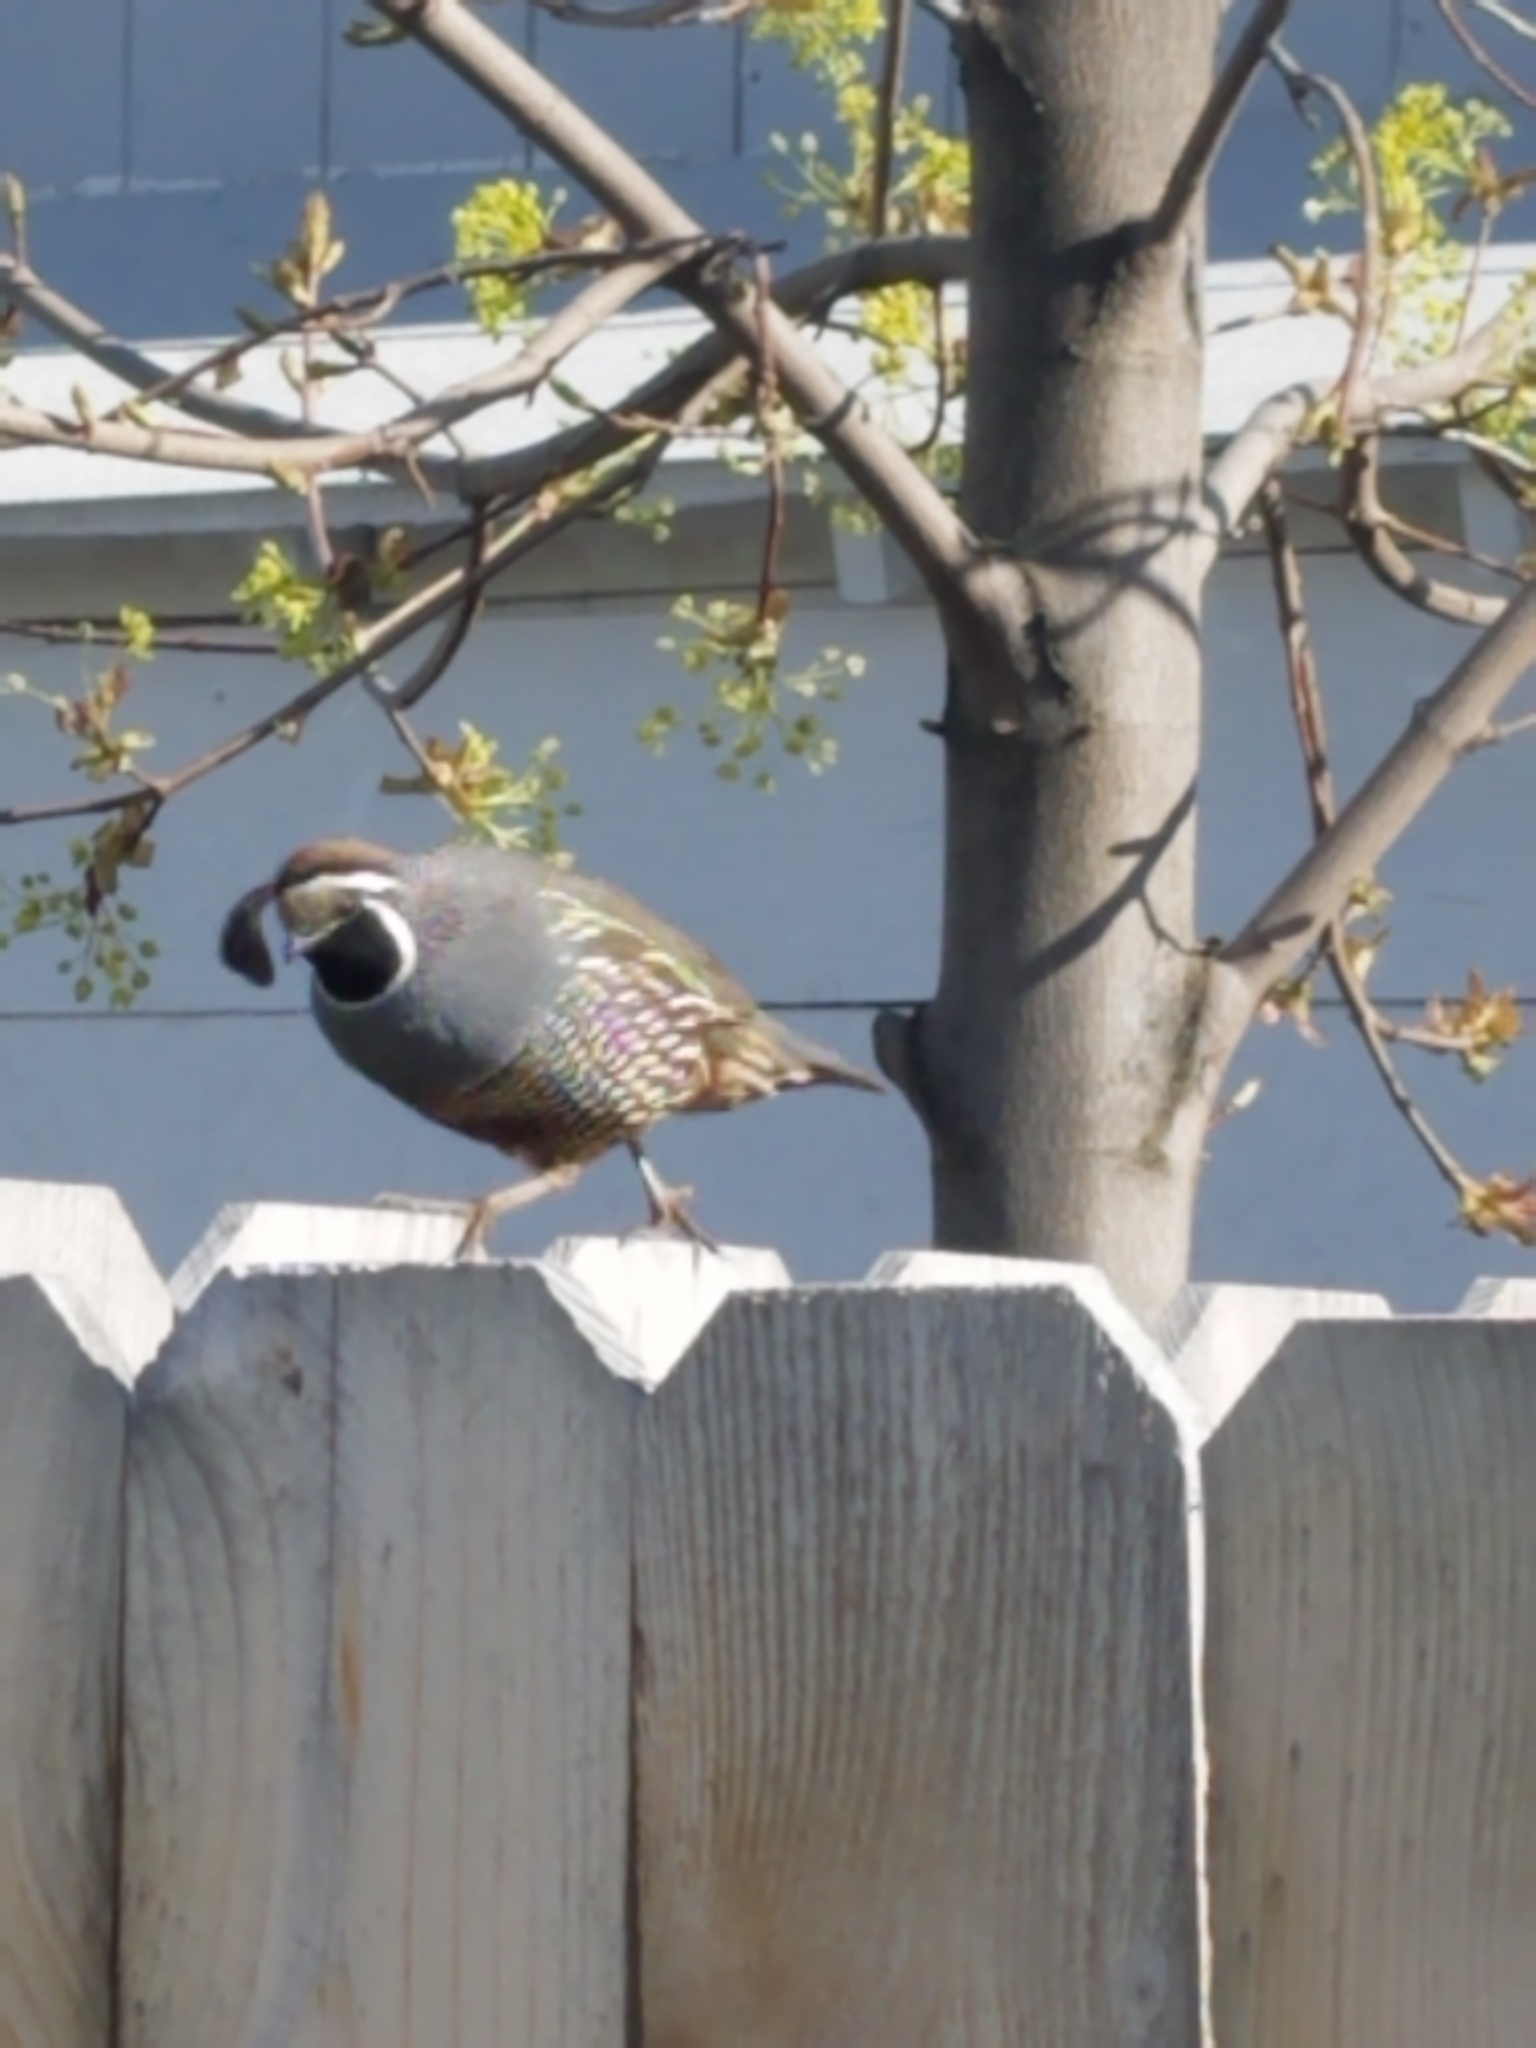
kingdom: Animalia
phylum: Chordata
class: Aves
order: Galliformes
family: Odontophoridae
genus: Callipepla
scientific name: Callipepla californica
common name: California quail
